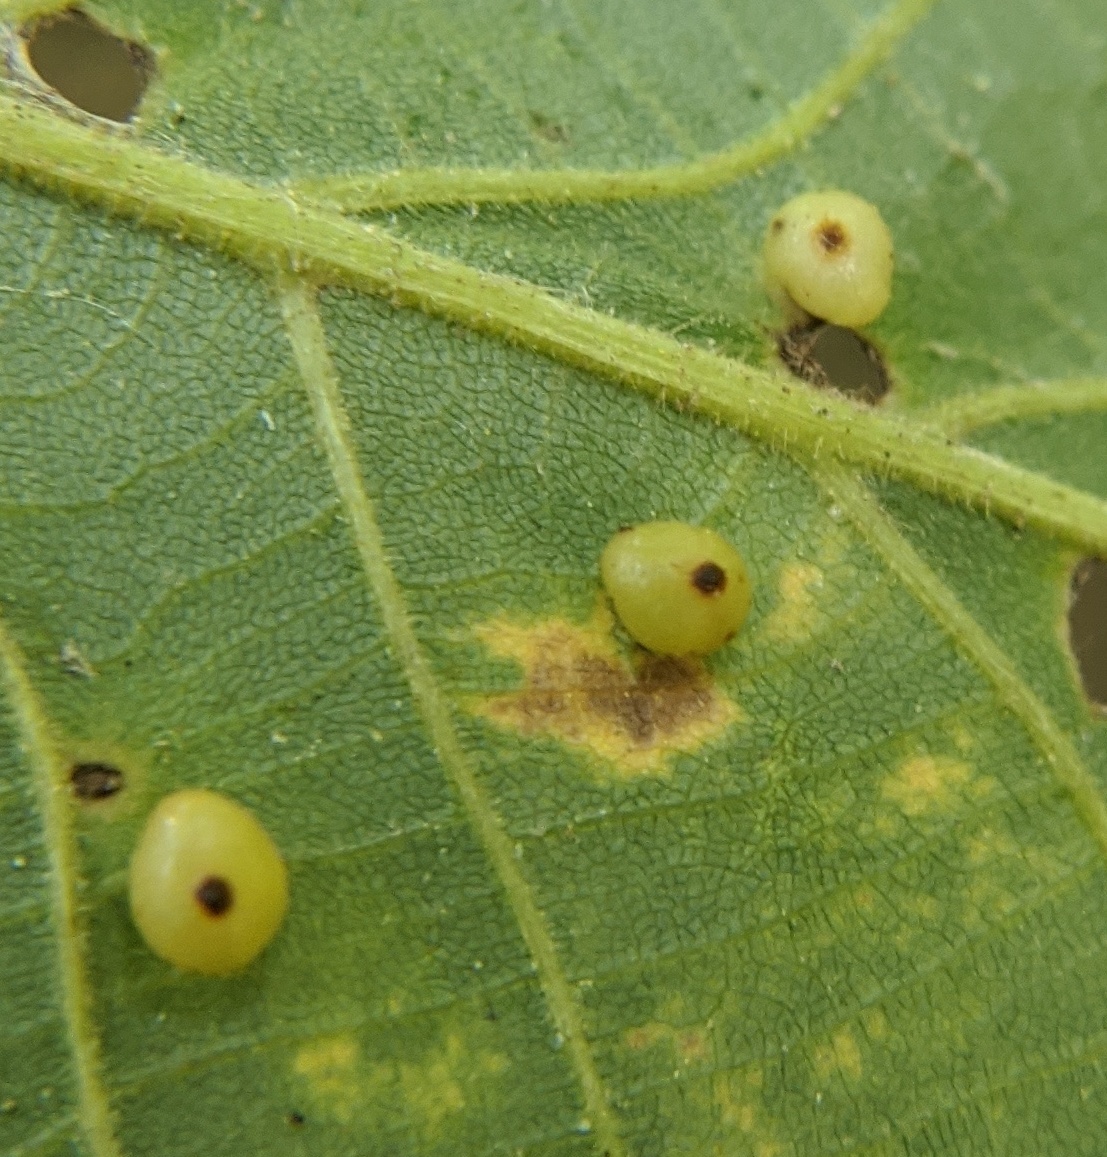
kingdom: Animalia
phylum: Arthropoda
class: Insecta
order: Diptera
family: Cecidomyiidae
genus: Caryomyia
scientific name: Caryomyia caryae
